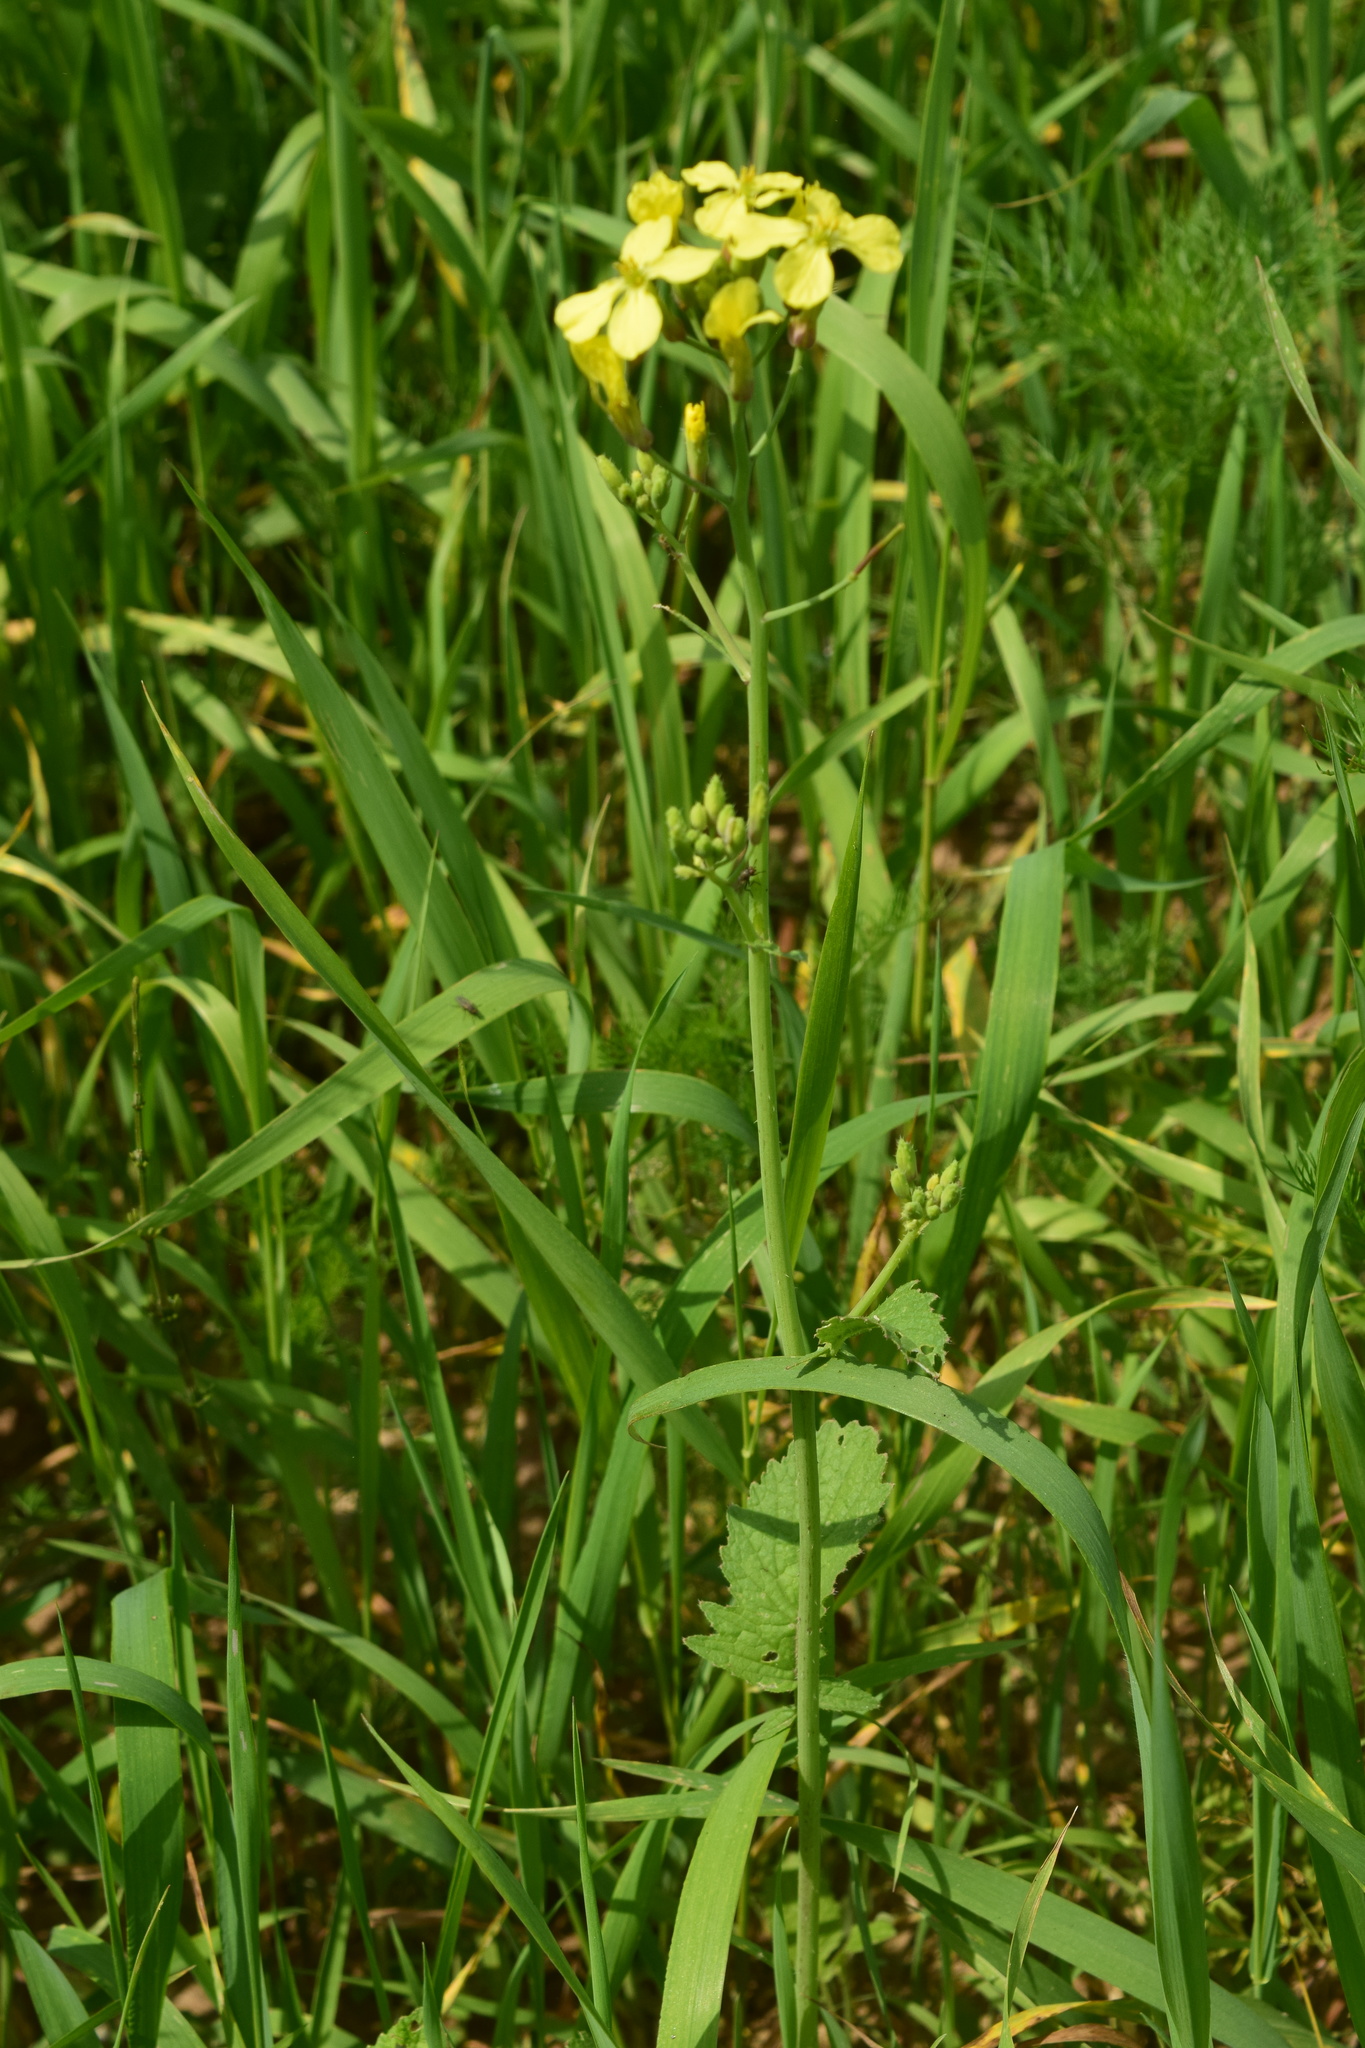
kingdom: Plantae
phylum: Tracheophyta
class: Magnoliopsida
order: Brassicales
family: Brassicaceae
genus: Raphanus
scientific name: Raphanus raphanistrum
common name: Wild radish
